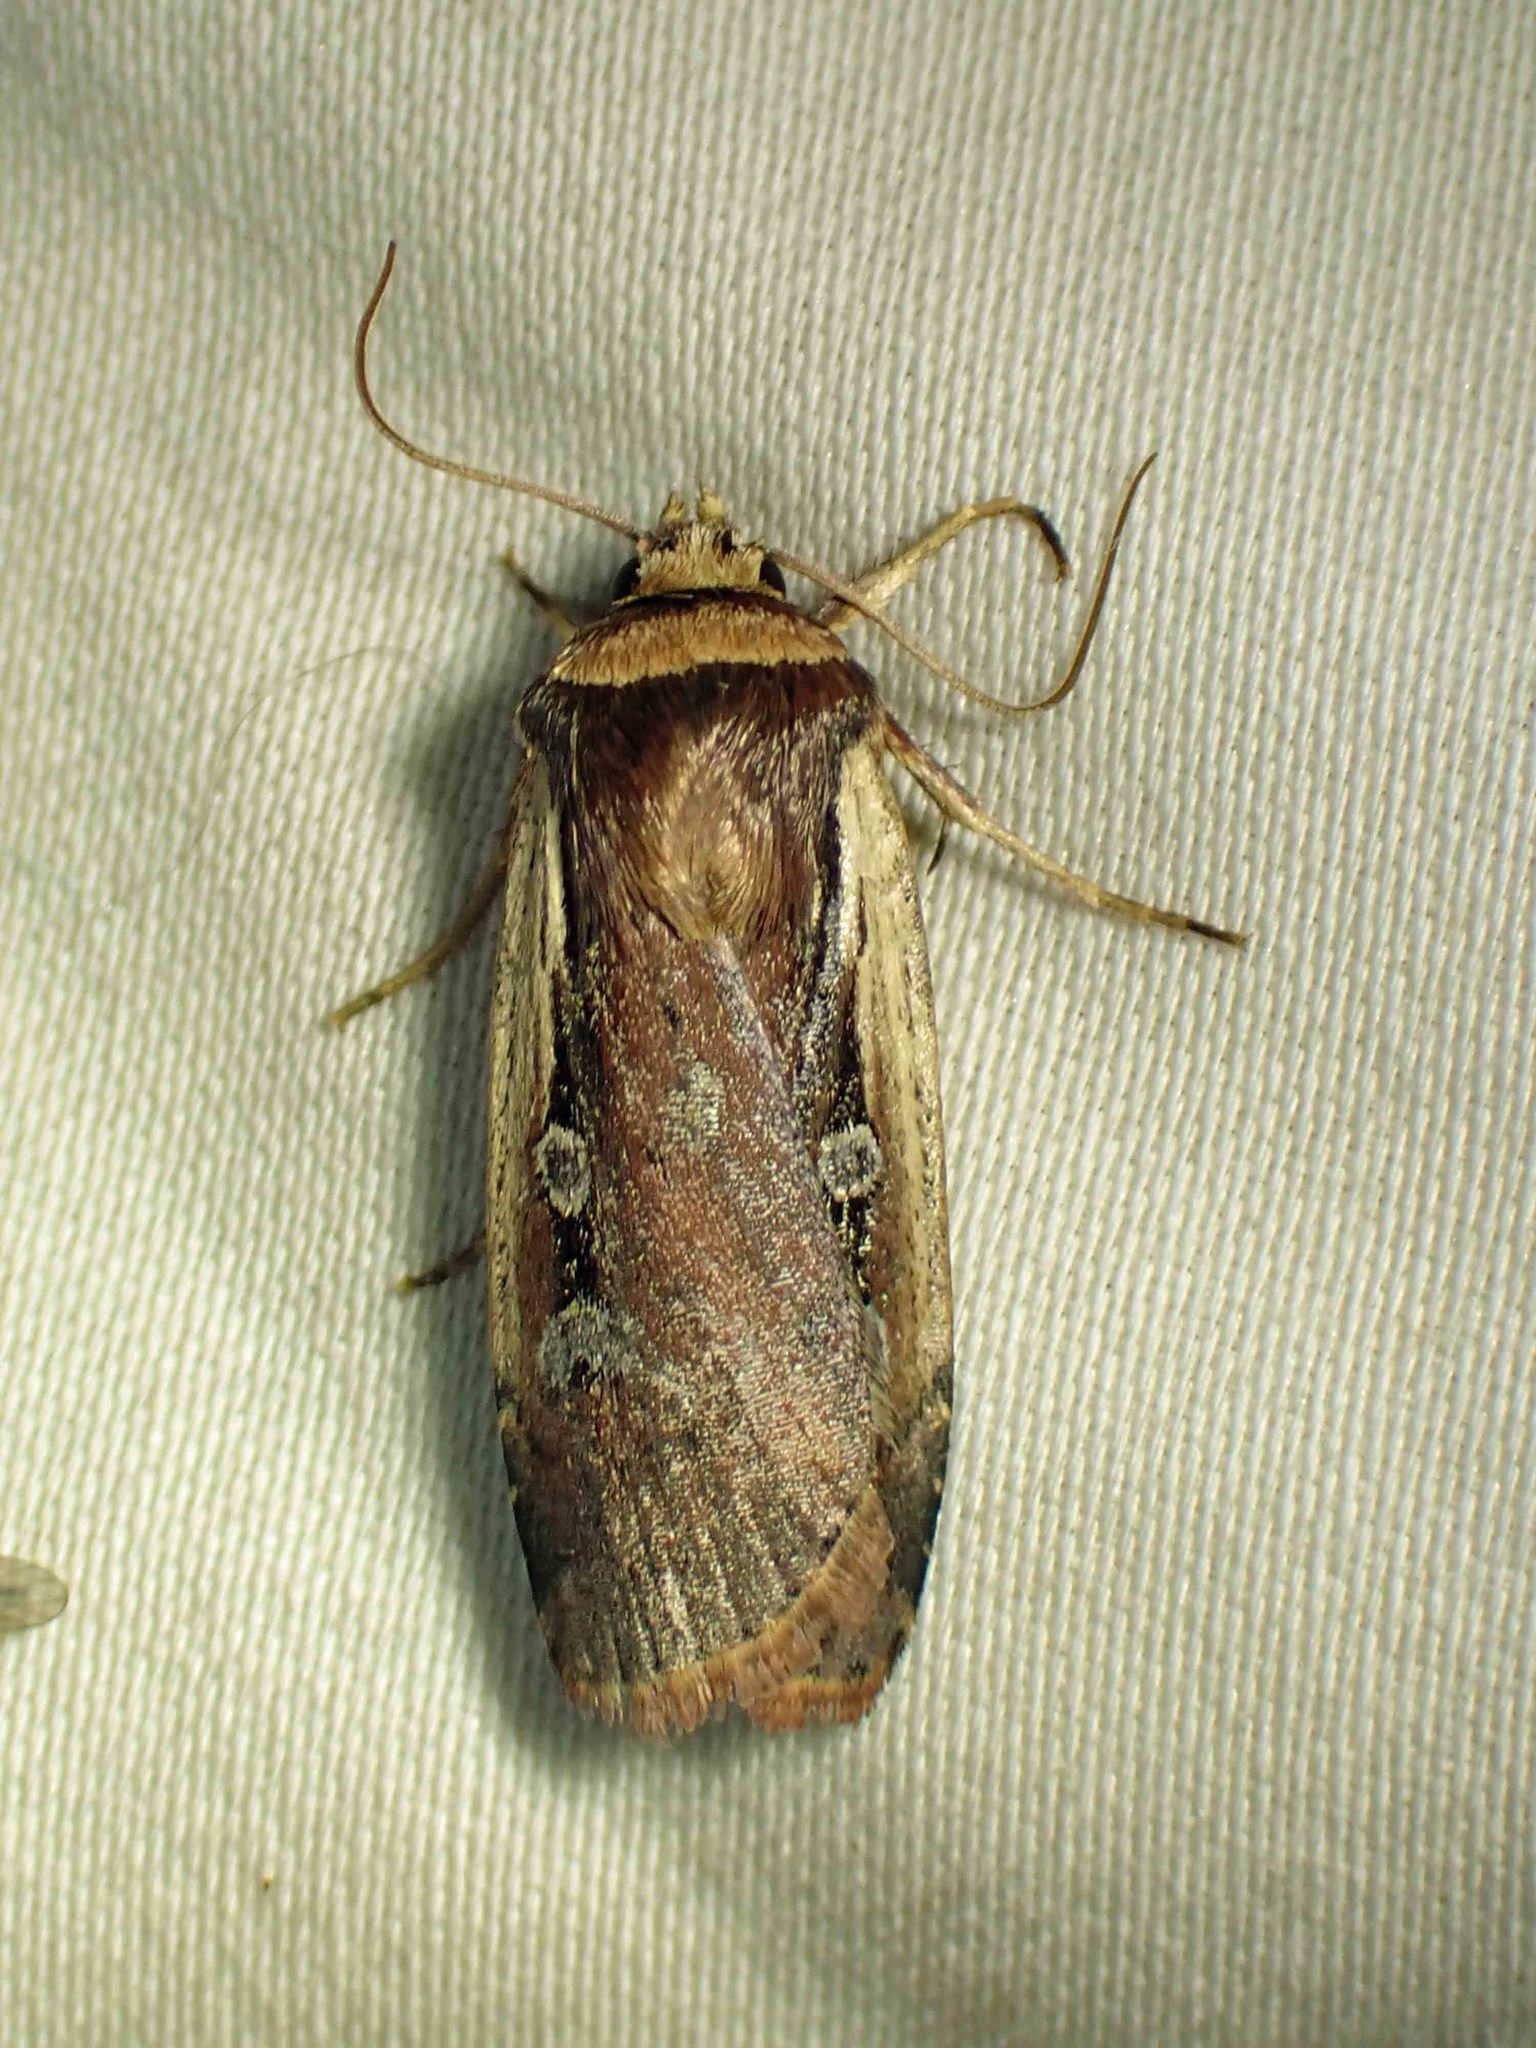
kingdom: Animalia
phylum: Arthropoda
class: Insecta
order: Lepidoptera
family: Noctuidae
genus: Ochropleura
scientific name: Ochropleura implecta
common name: Flame-shouldered dart
